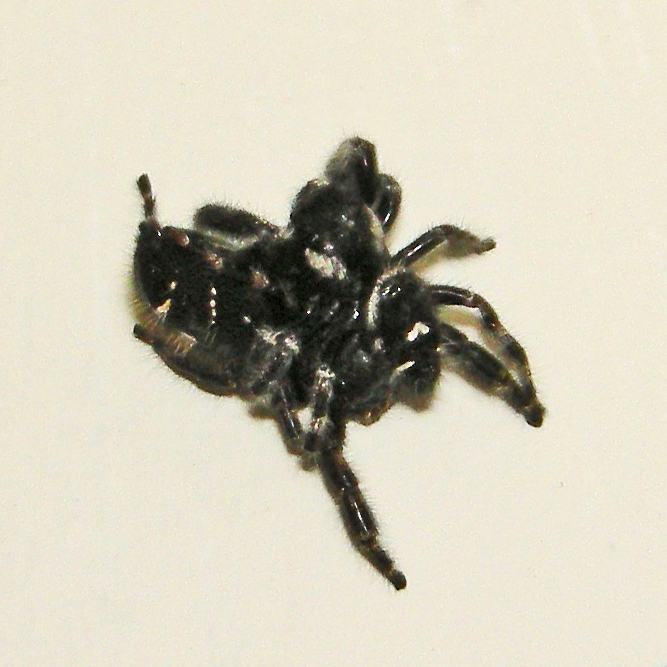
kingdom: Animalia
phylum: Arthropoda
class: Arachnida
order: Araneae
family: Salticidae
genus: Phidippus
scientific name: Phidippus audax
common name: Bold jumper
